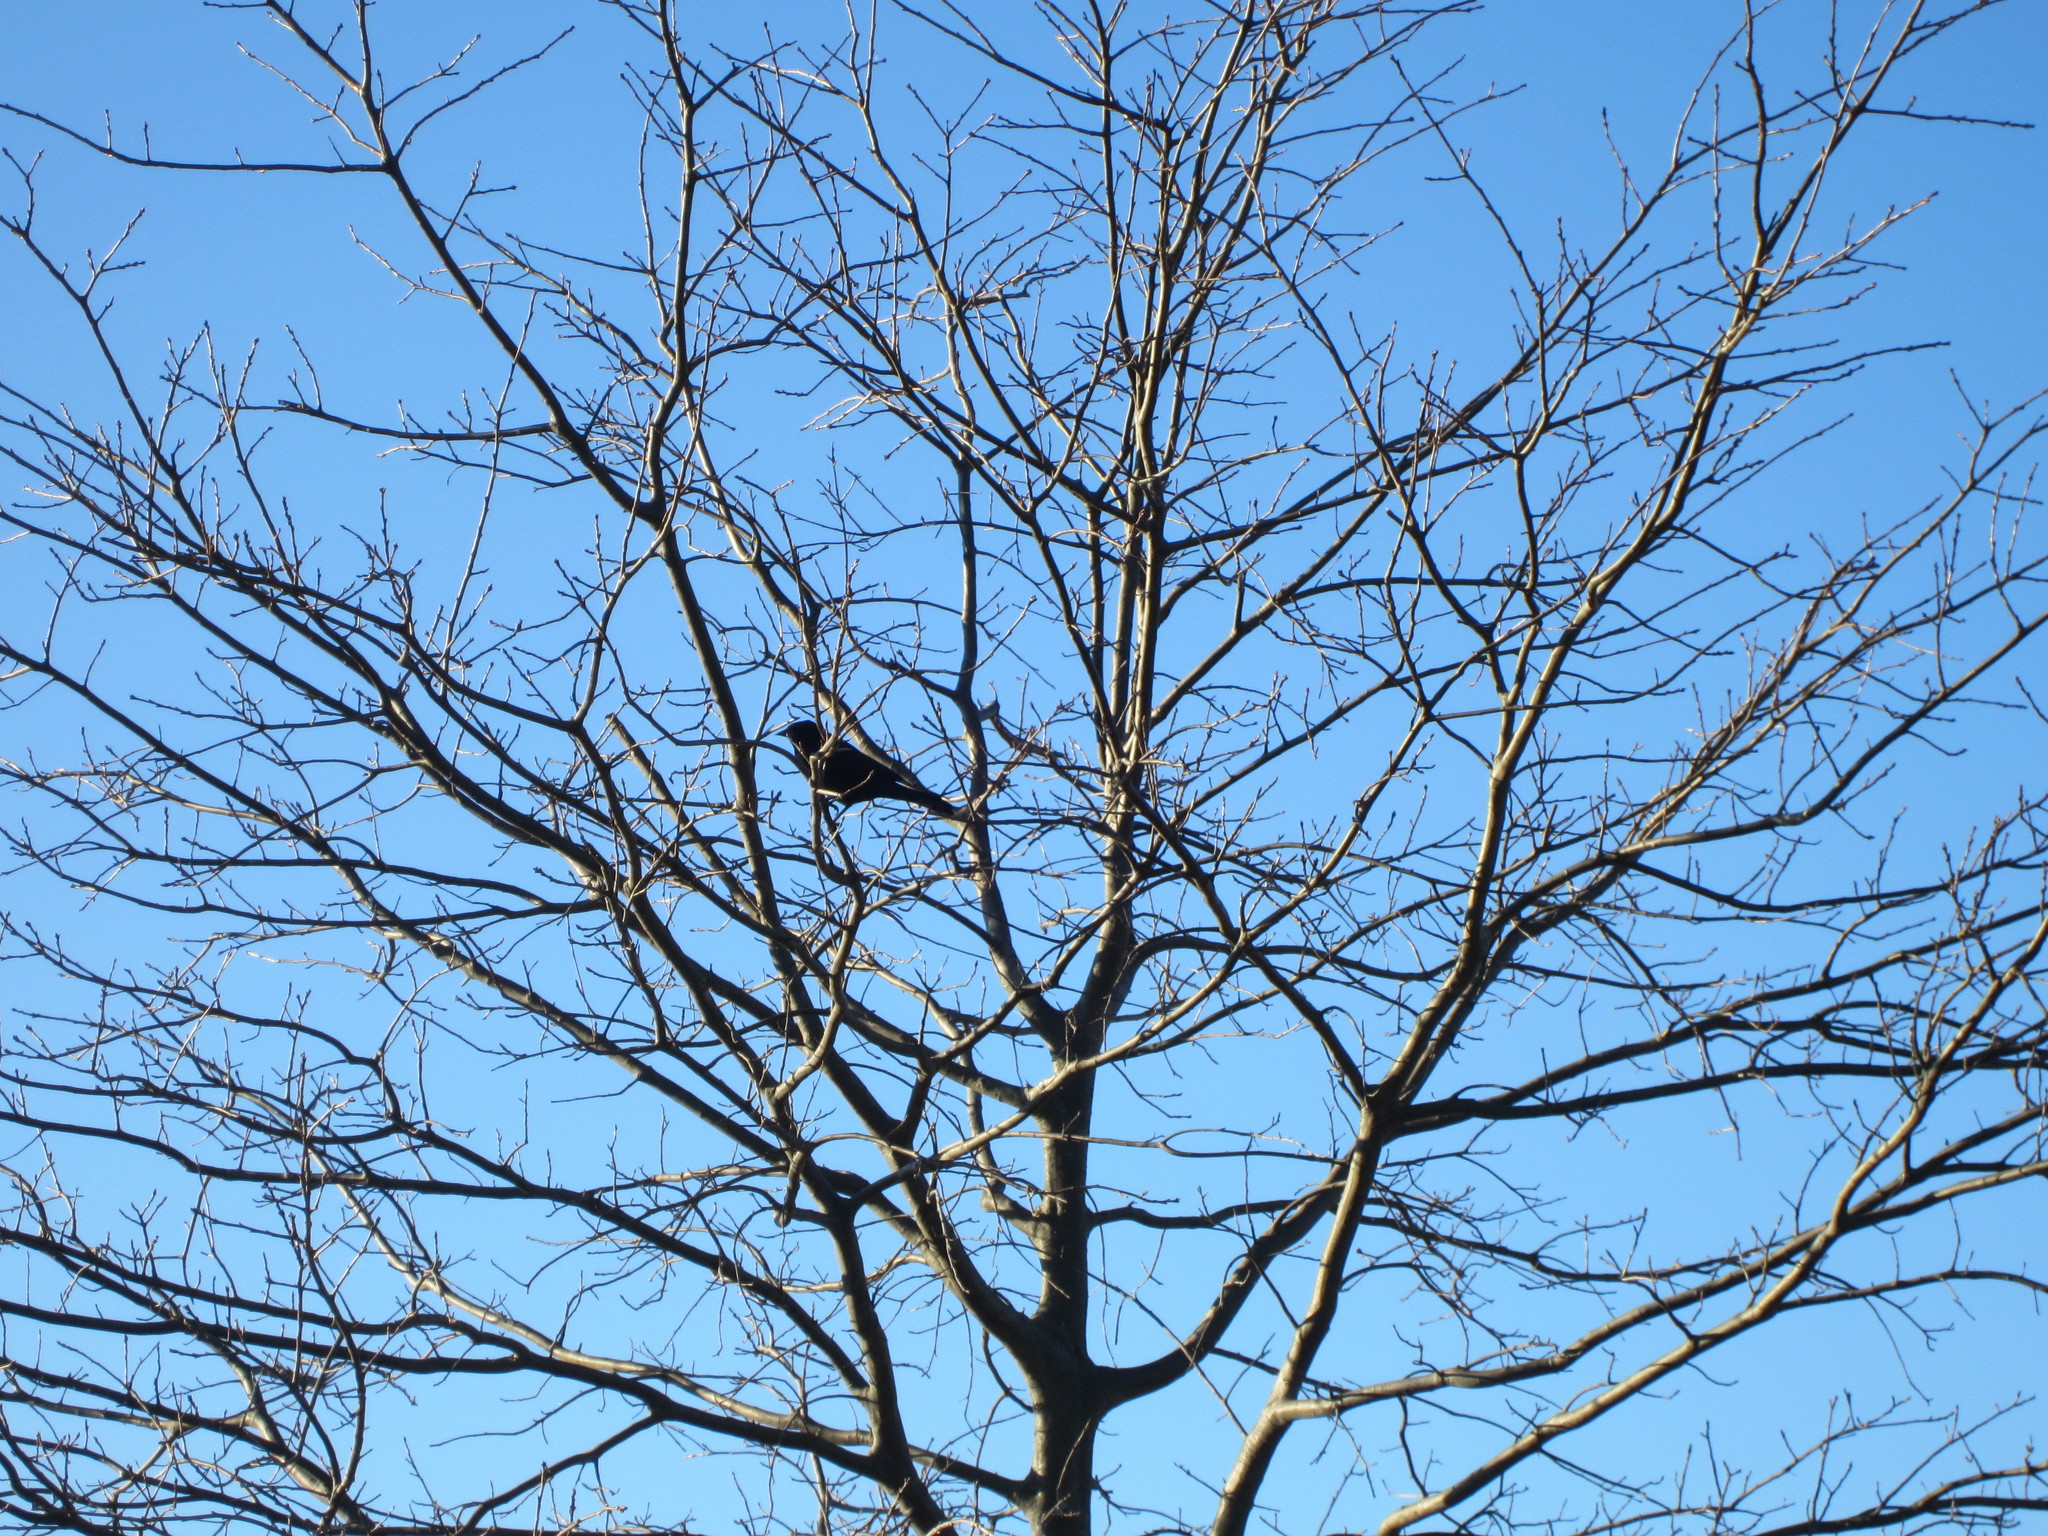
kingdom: Animalia
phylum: Chordata
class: Aves
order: Passeriformes
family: Icteridae
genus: Agelaius
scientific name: Agelaius phoeniceus
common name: Red-winged blackbird
